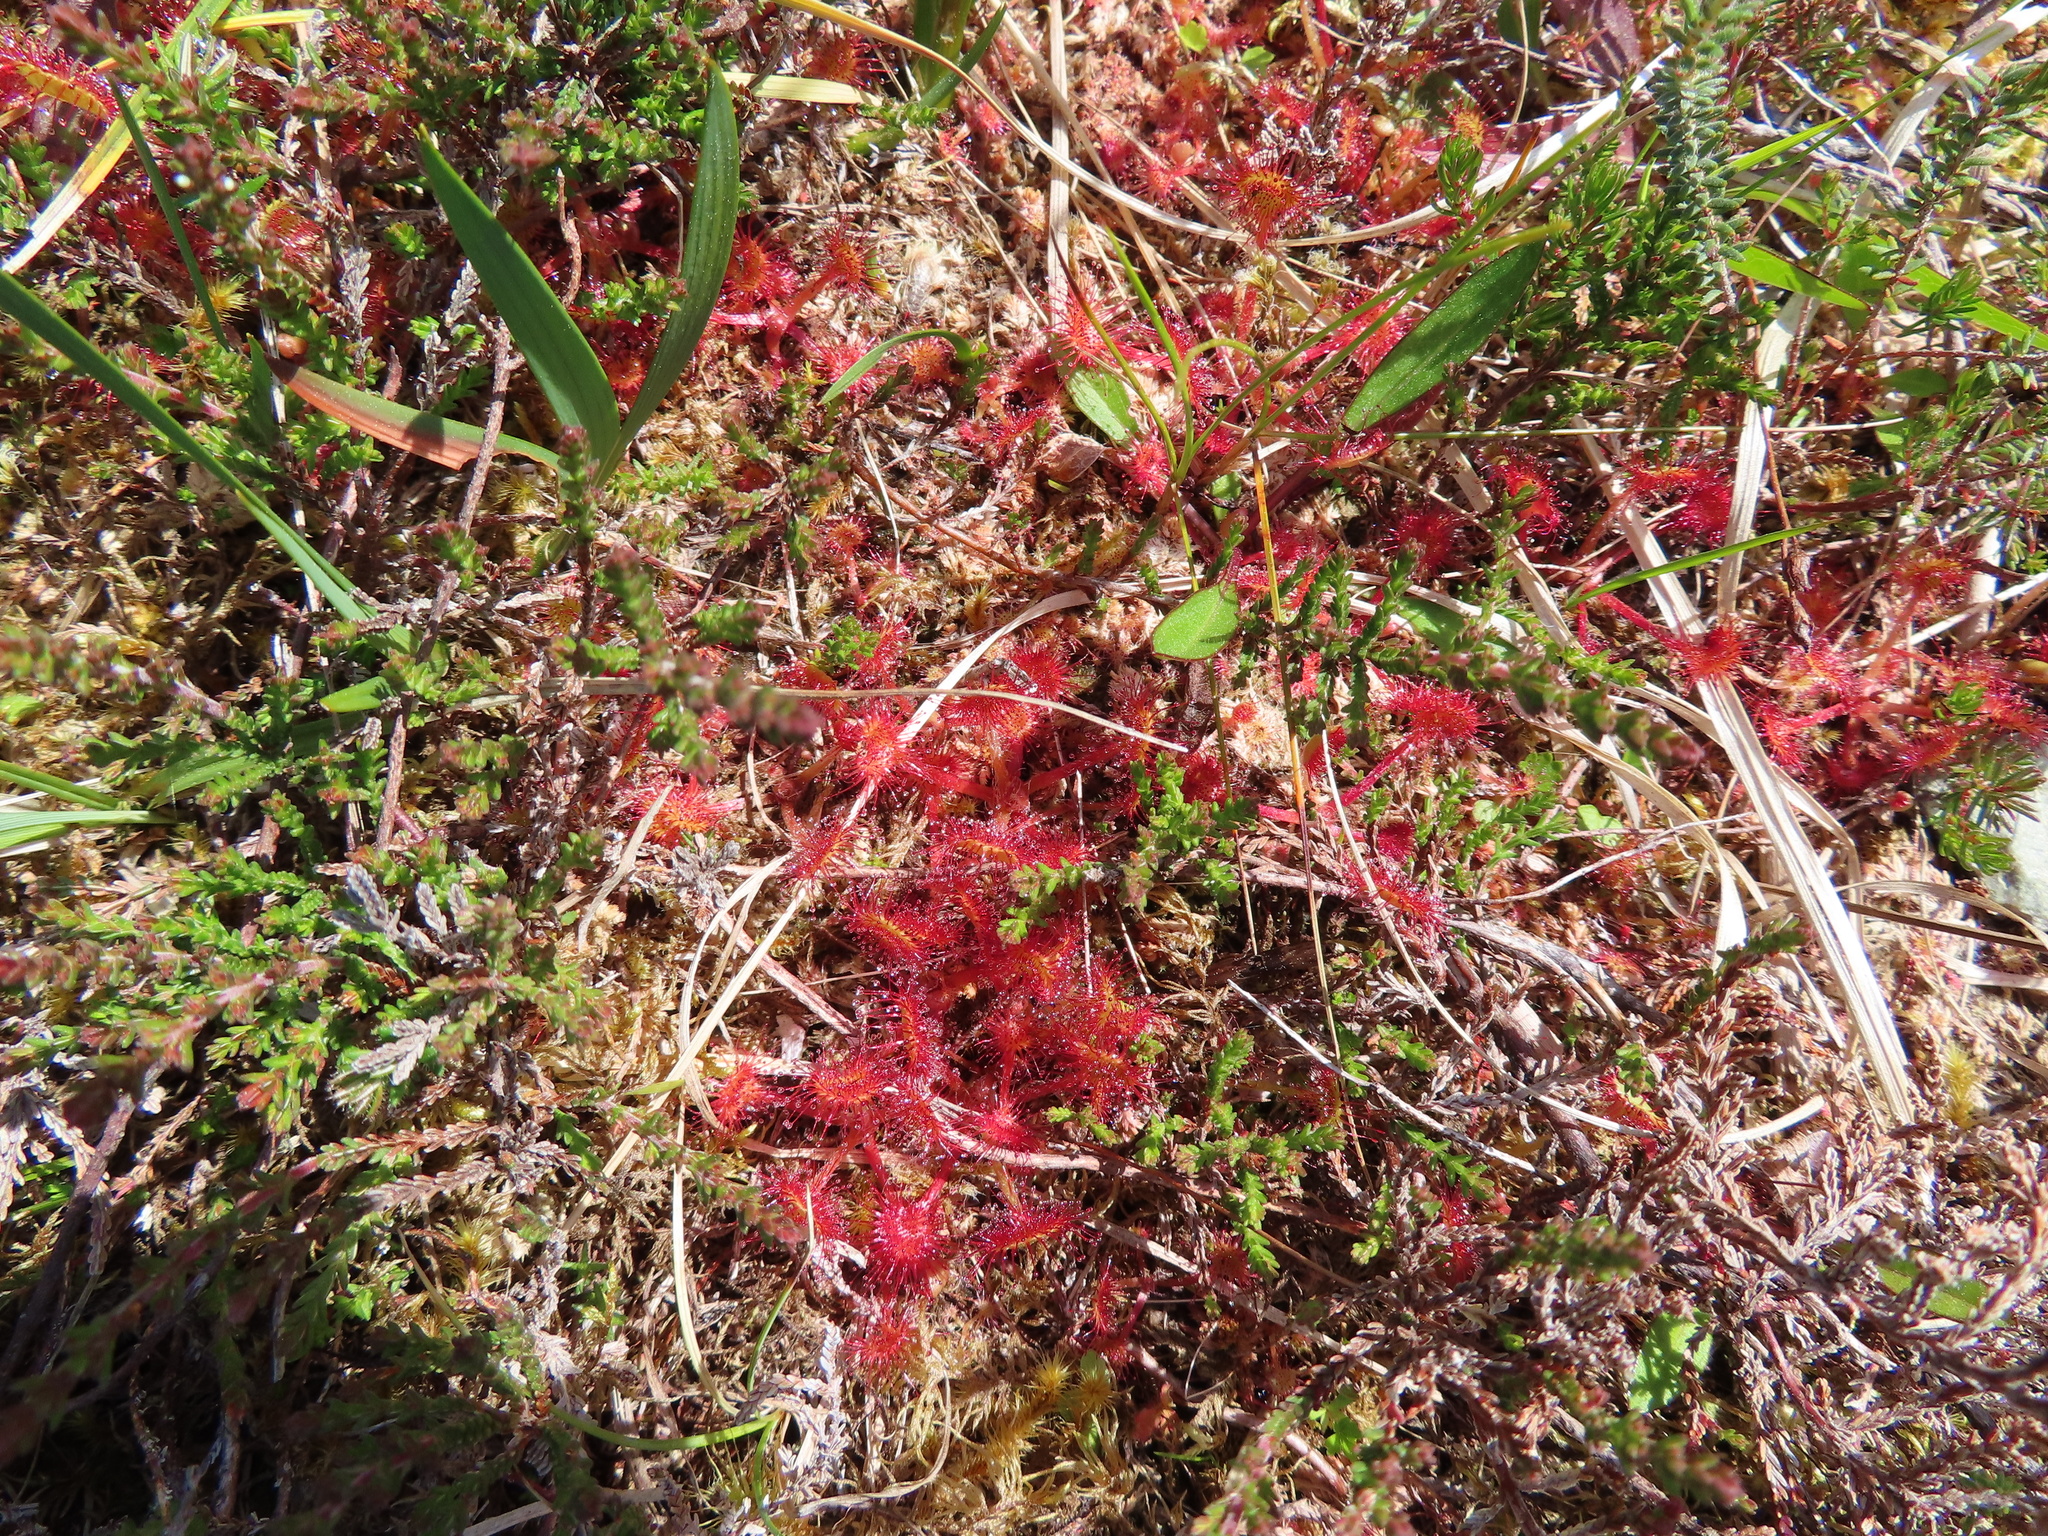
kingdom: Plantae
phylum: Tracheophyta
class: Magnoliopsida
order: Caryophyllales
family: Droseraceae
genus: Drosera
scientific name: Drosera rotundifolia
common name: Round-leaved sundew
